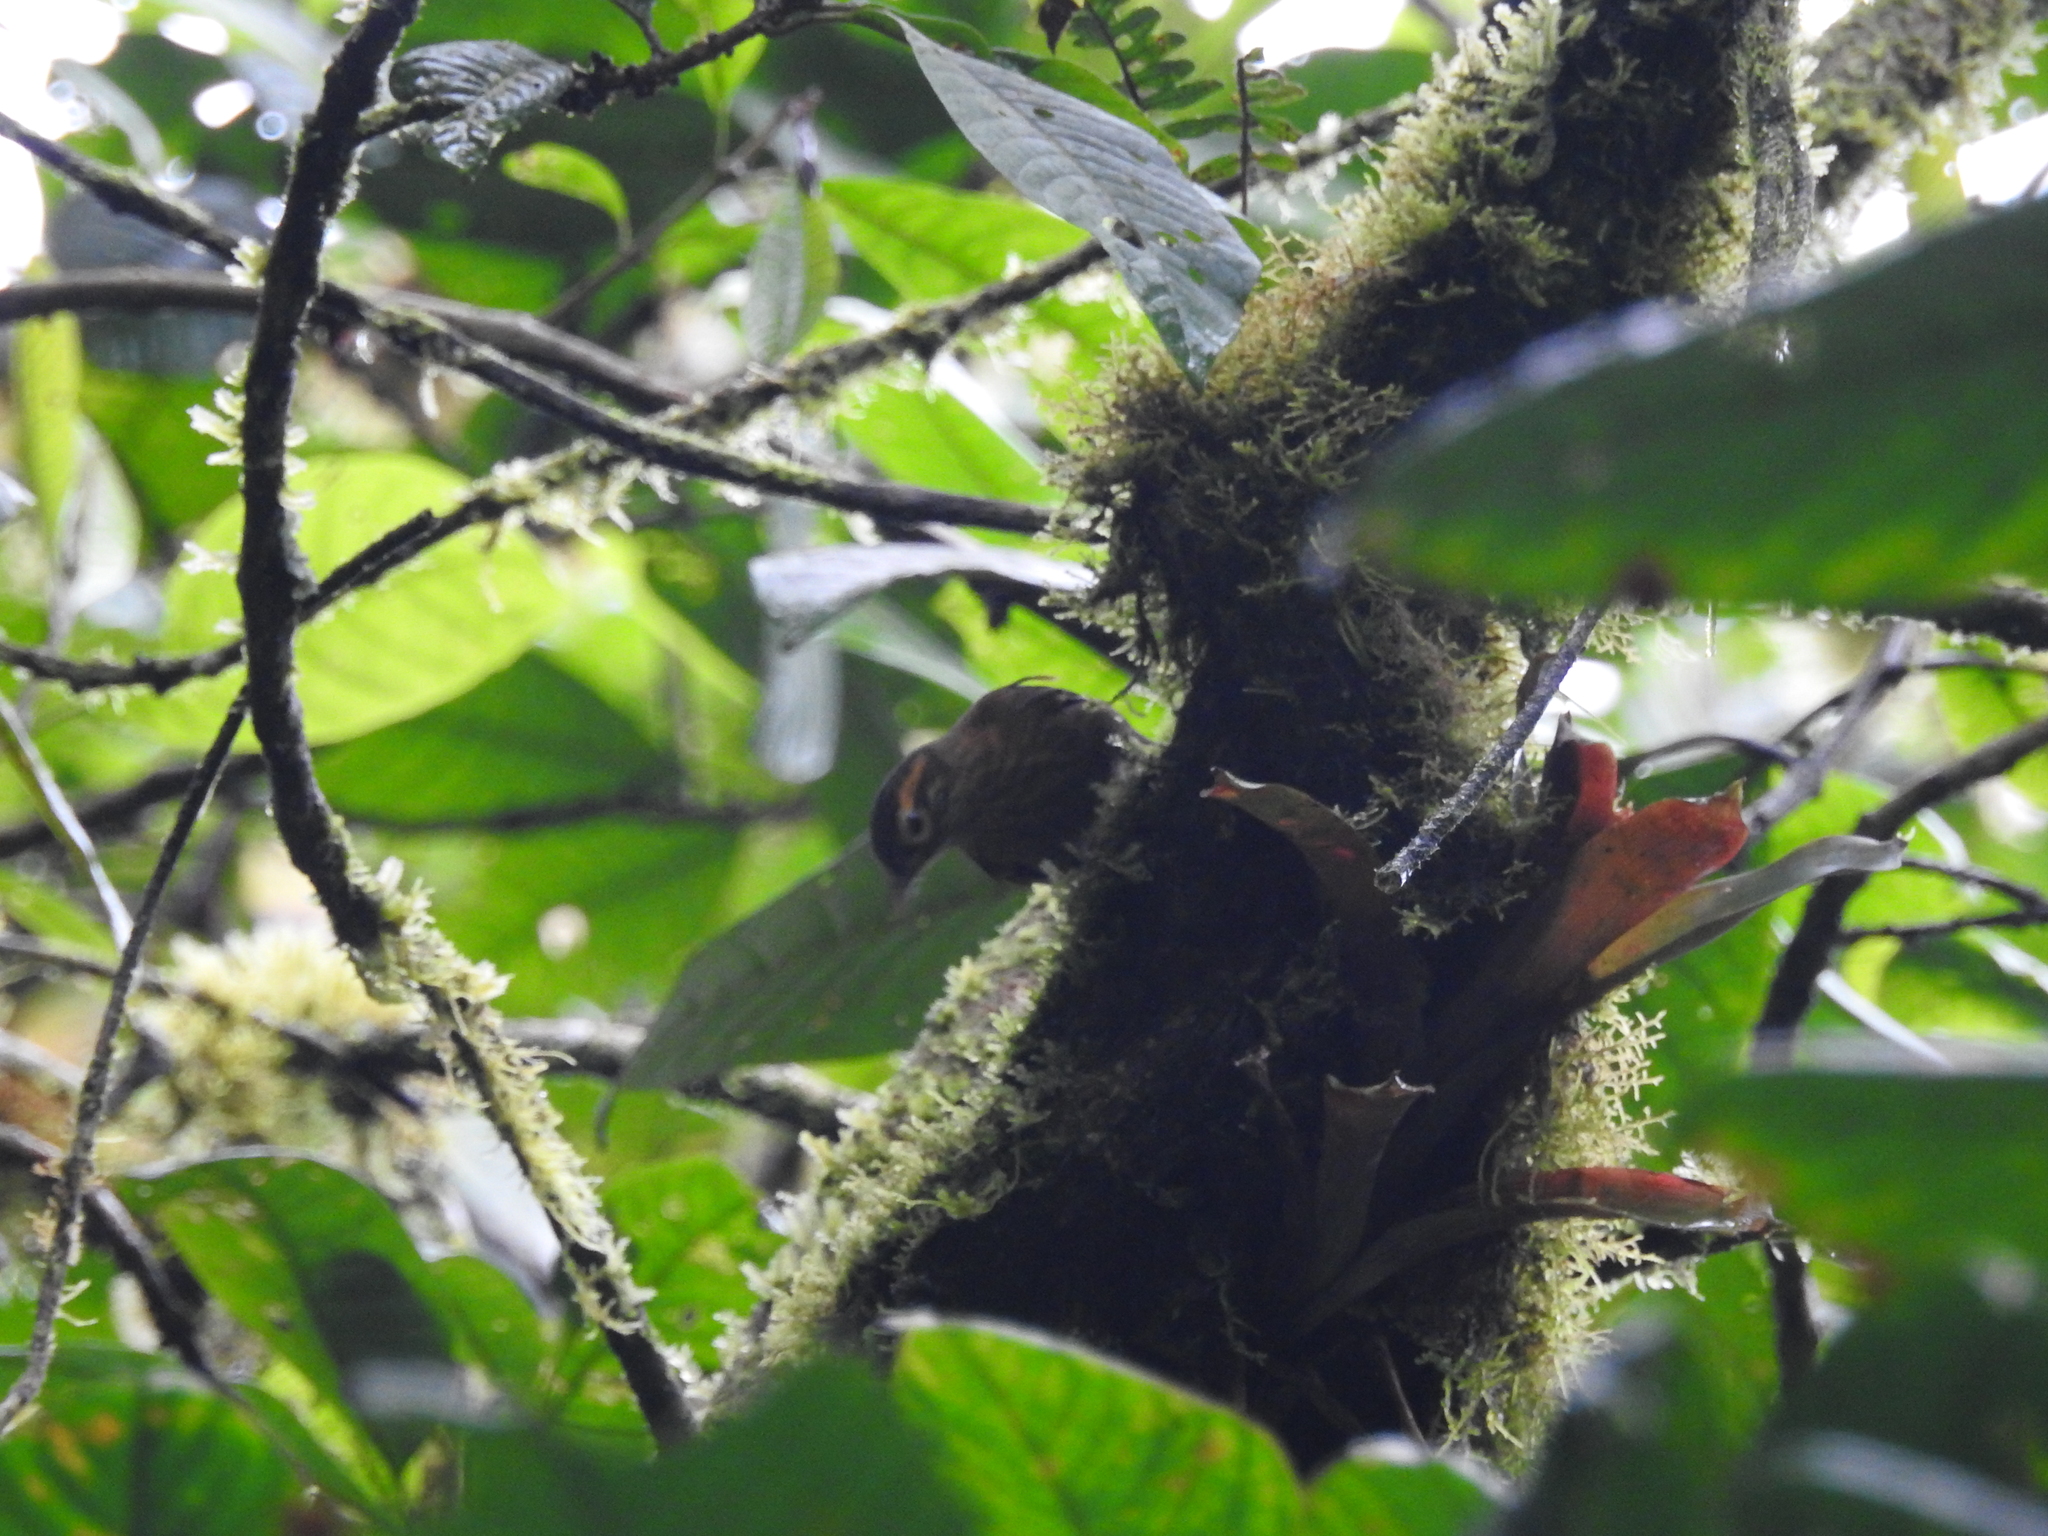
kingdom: Animalia
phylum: Chordata
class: Aves
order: Passeriformes
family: Furnariidae
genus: Anabacerthia
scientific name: Anabacerthia variegaticeps
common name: Scaly-throated foliage-gleaner
